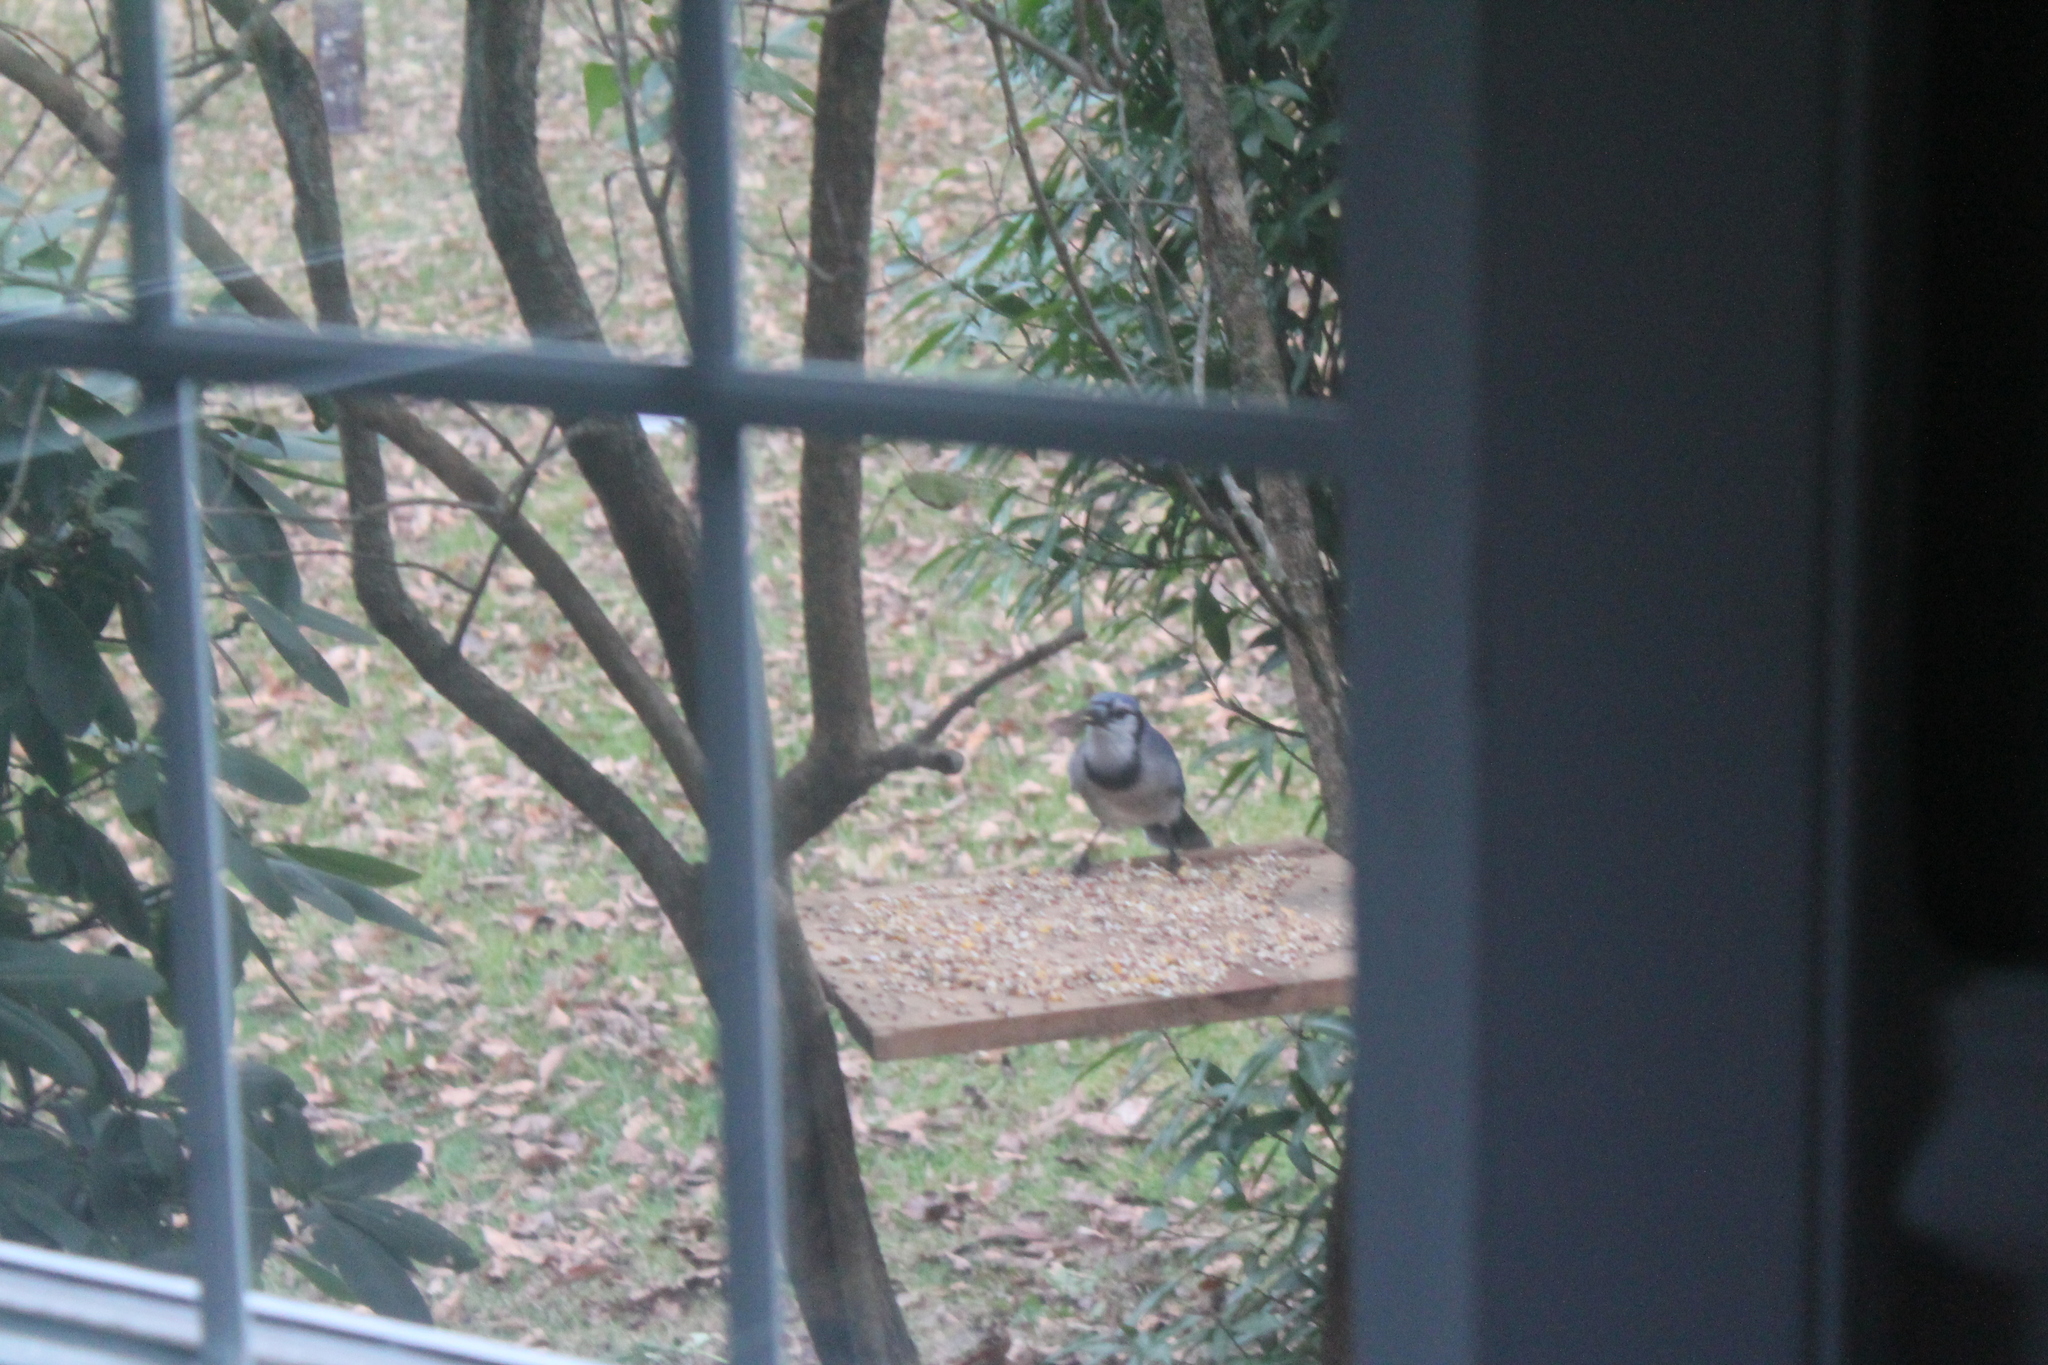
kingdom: Animalia
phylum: Chordata
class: Aves
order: Passeriformes
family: Corvidae
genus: Cyanocitta
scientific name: Cyanocitta cristata
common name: Blue jay
